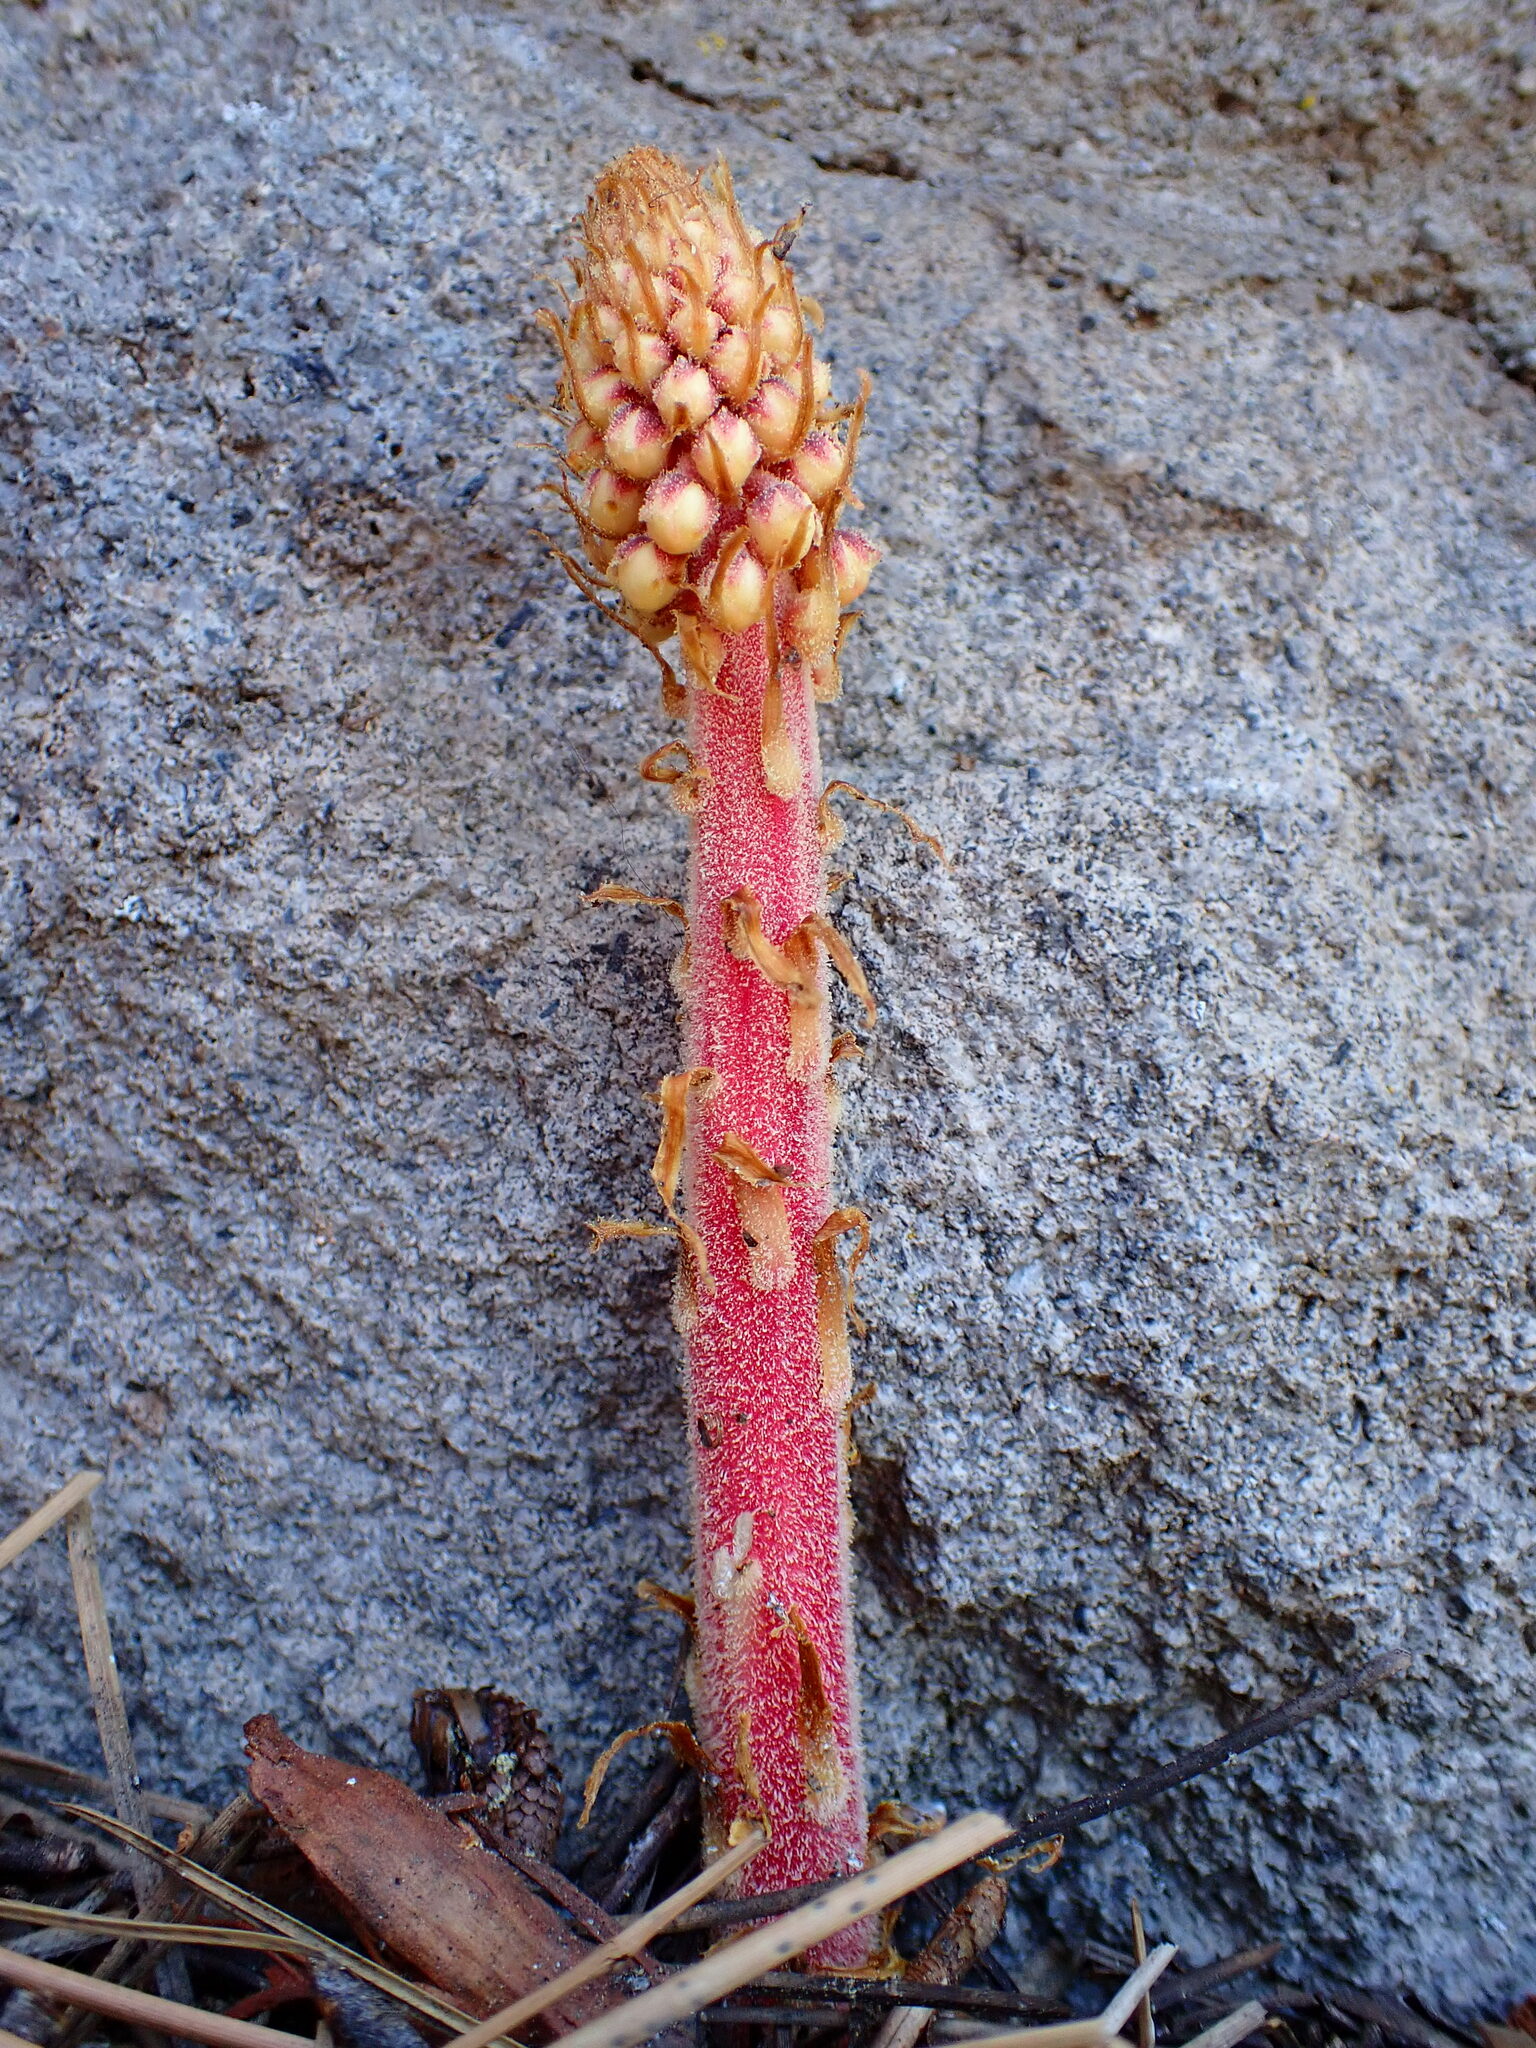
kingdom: Plantae
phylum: Tracheophyta
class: Magnoliopsida
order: Ericales
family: Ericaceae
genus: Pterospora
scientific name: Pterospora andromedea
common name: Giant bird's-nest
